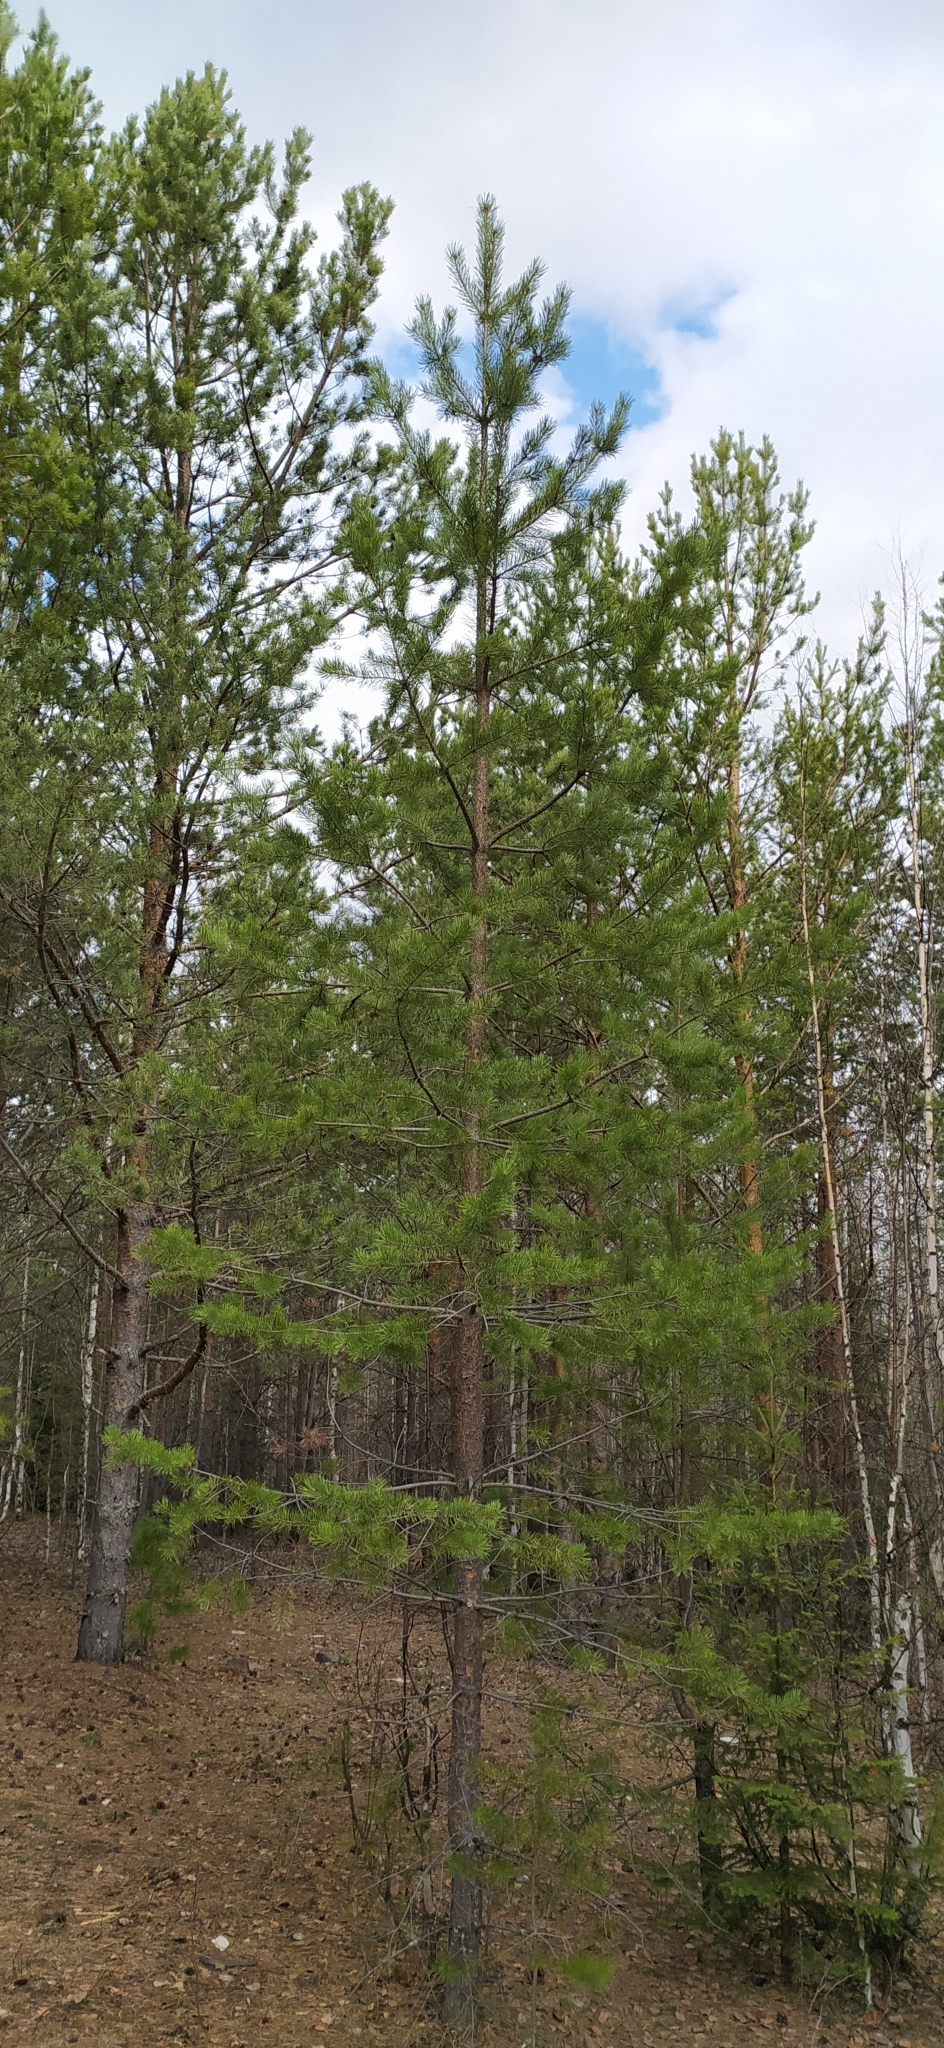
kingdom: Plantae
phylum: Tracheophyta
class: Pinopsida
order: Pinales
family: Pinaceae
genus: Pinus
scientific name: Pinus sylvestris
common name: Scots pine
